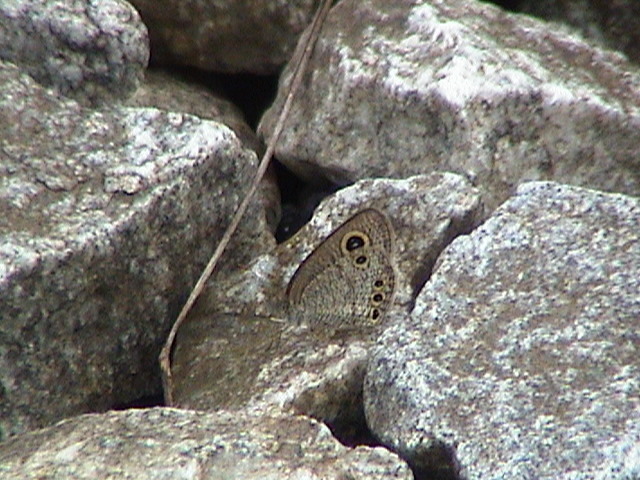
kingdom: Animalia
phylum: Arthropoda
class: Insecta
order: Lepidoptera
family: Nymphalidae
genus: Ypthima
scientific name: Ypthima huebneri
